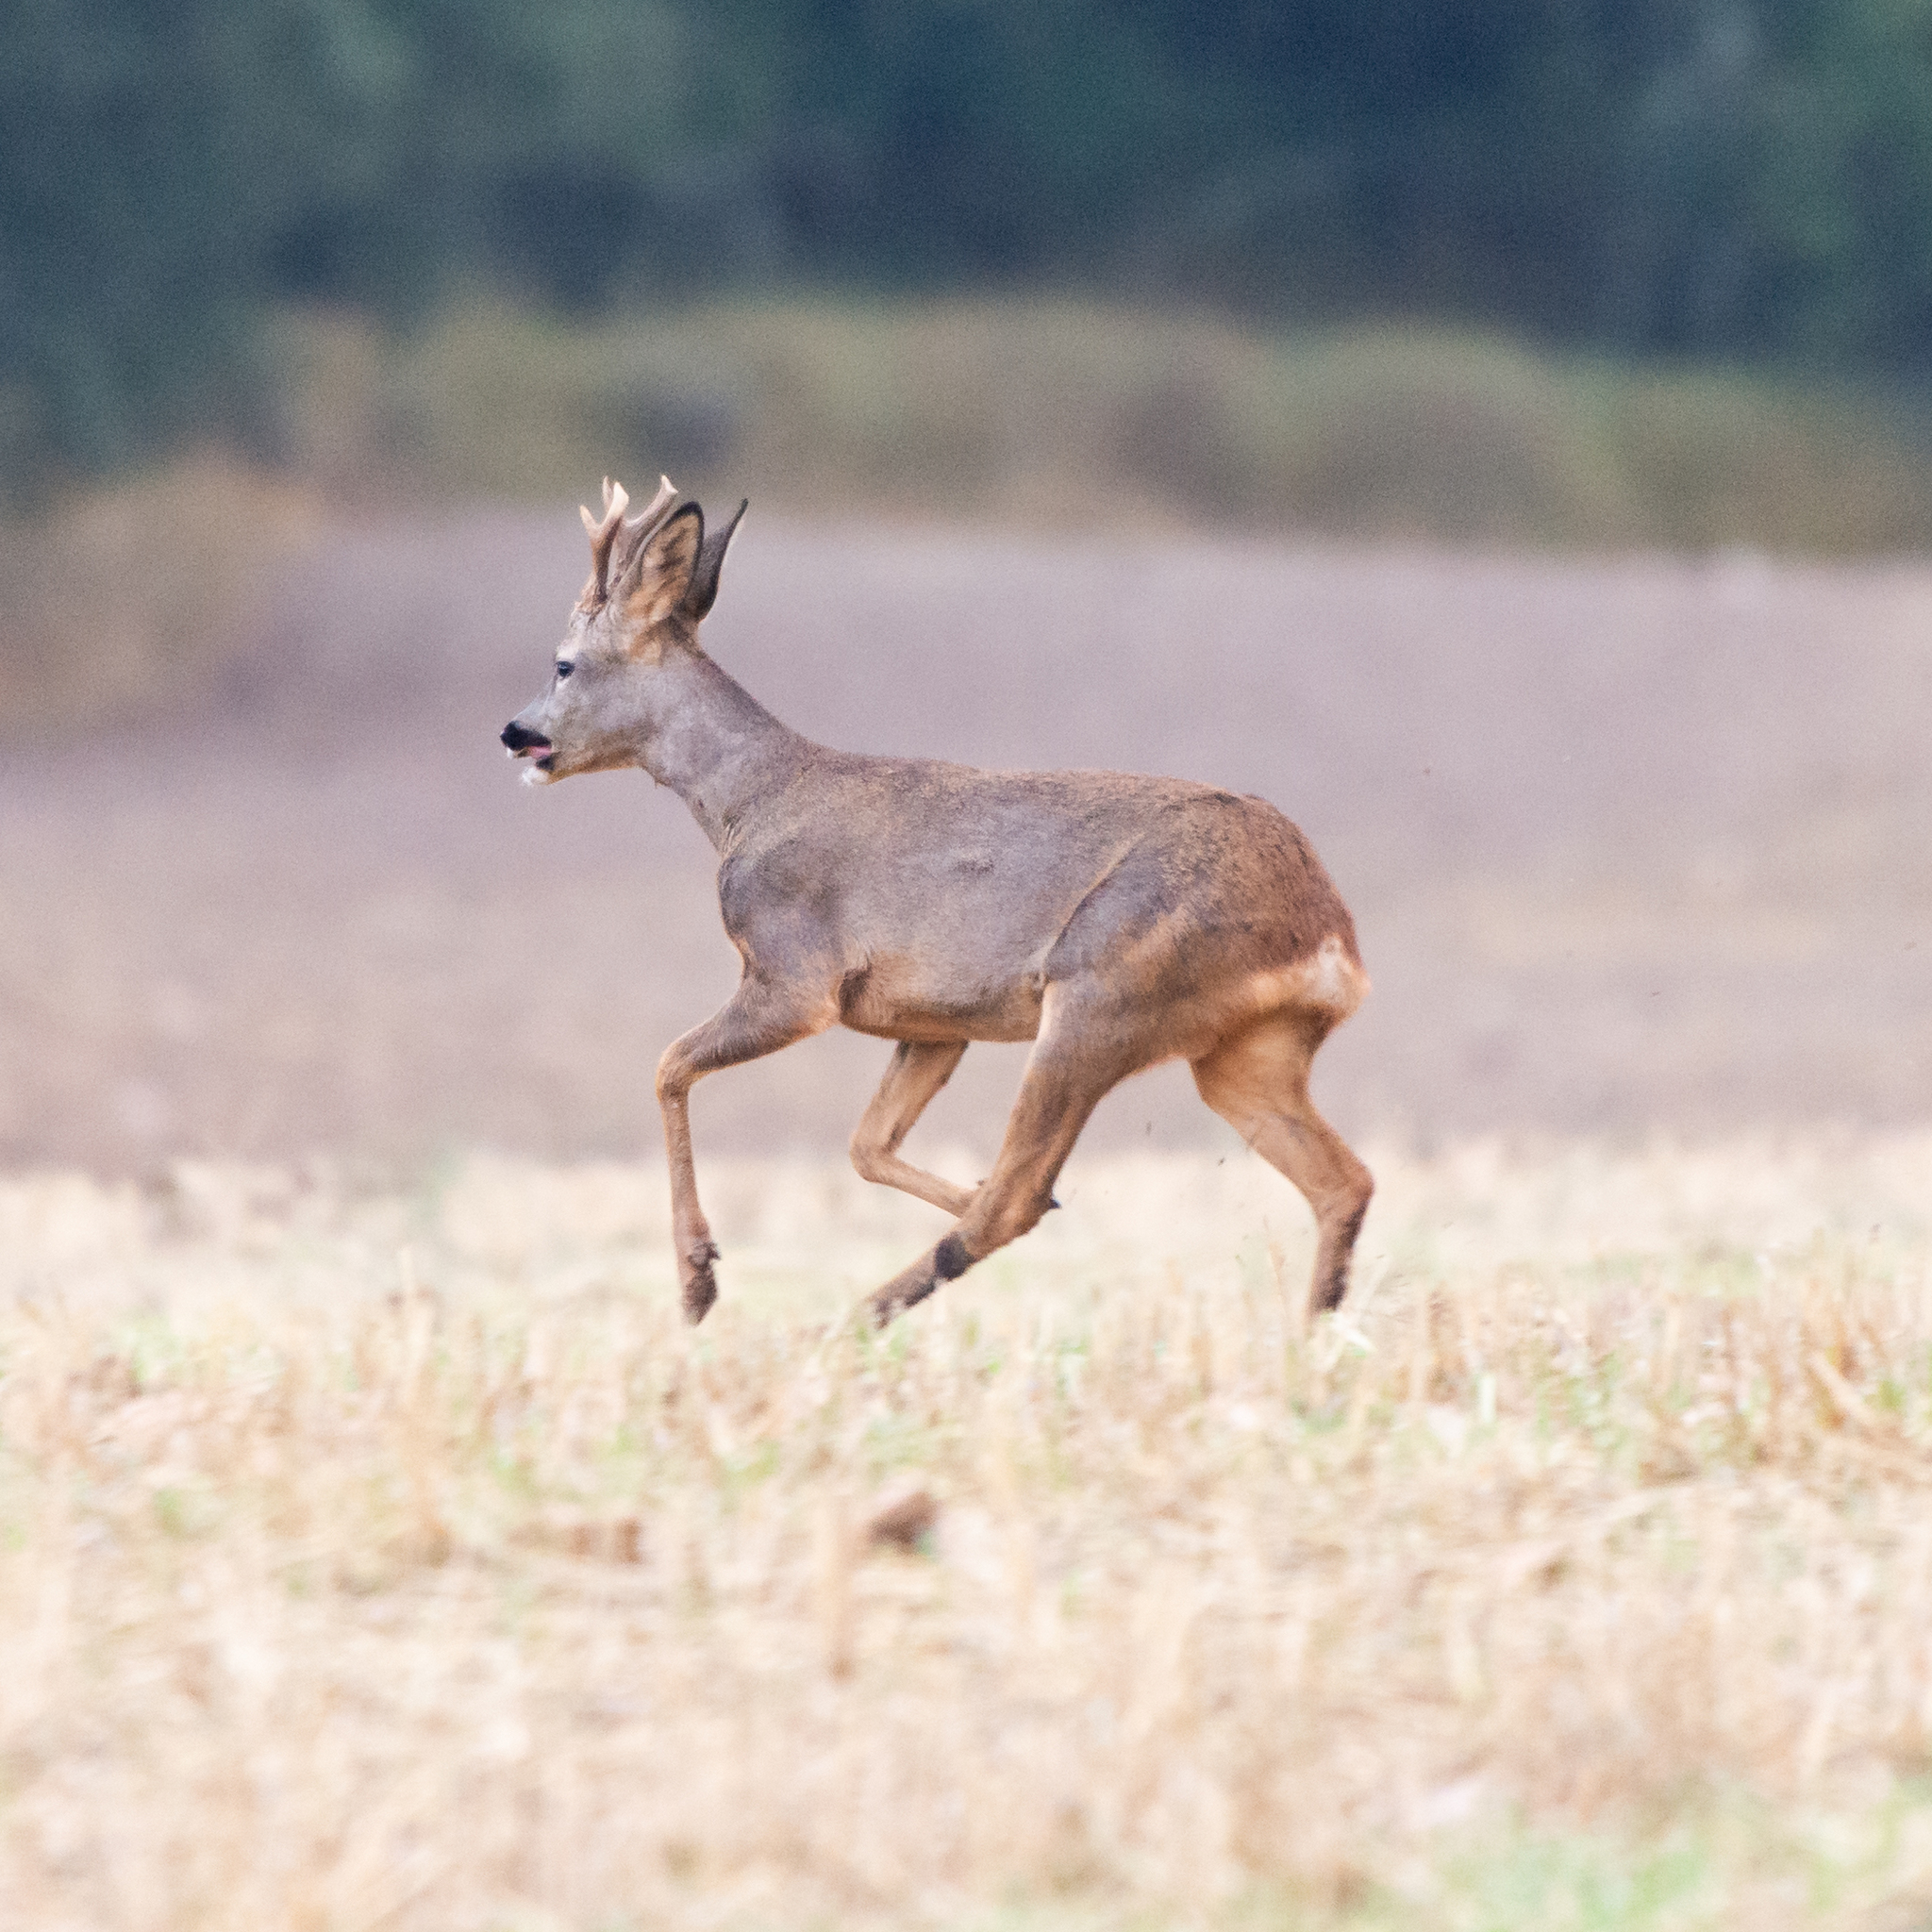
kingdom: Animalia
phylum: Chordata
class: Mammalia
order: Artiodactyla
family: Cervidae
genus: Capreolus
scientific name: Capreolus capreolus
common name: Western roe deer
